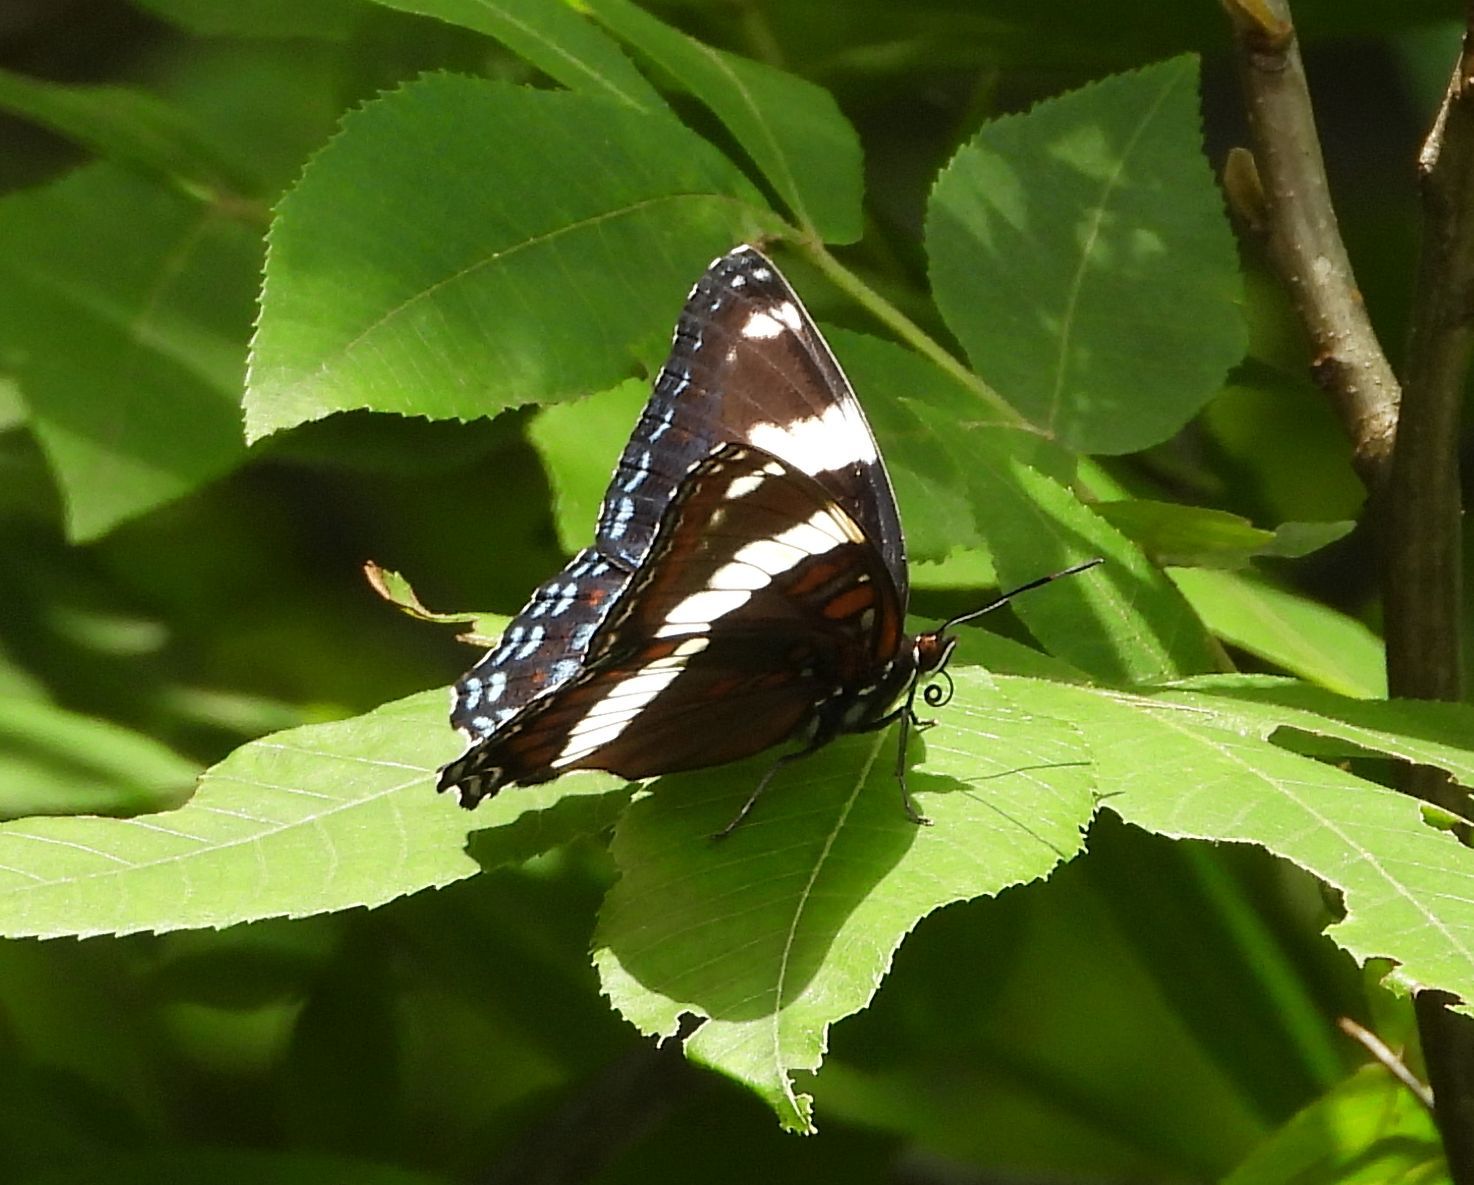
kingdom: Animalia
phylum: Arthropoda
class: Insecta
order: Lepidoptera
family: Nymphalidae
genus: Limenitis
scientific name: Limenitis arthemis
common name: Red-spotted admiral
